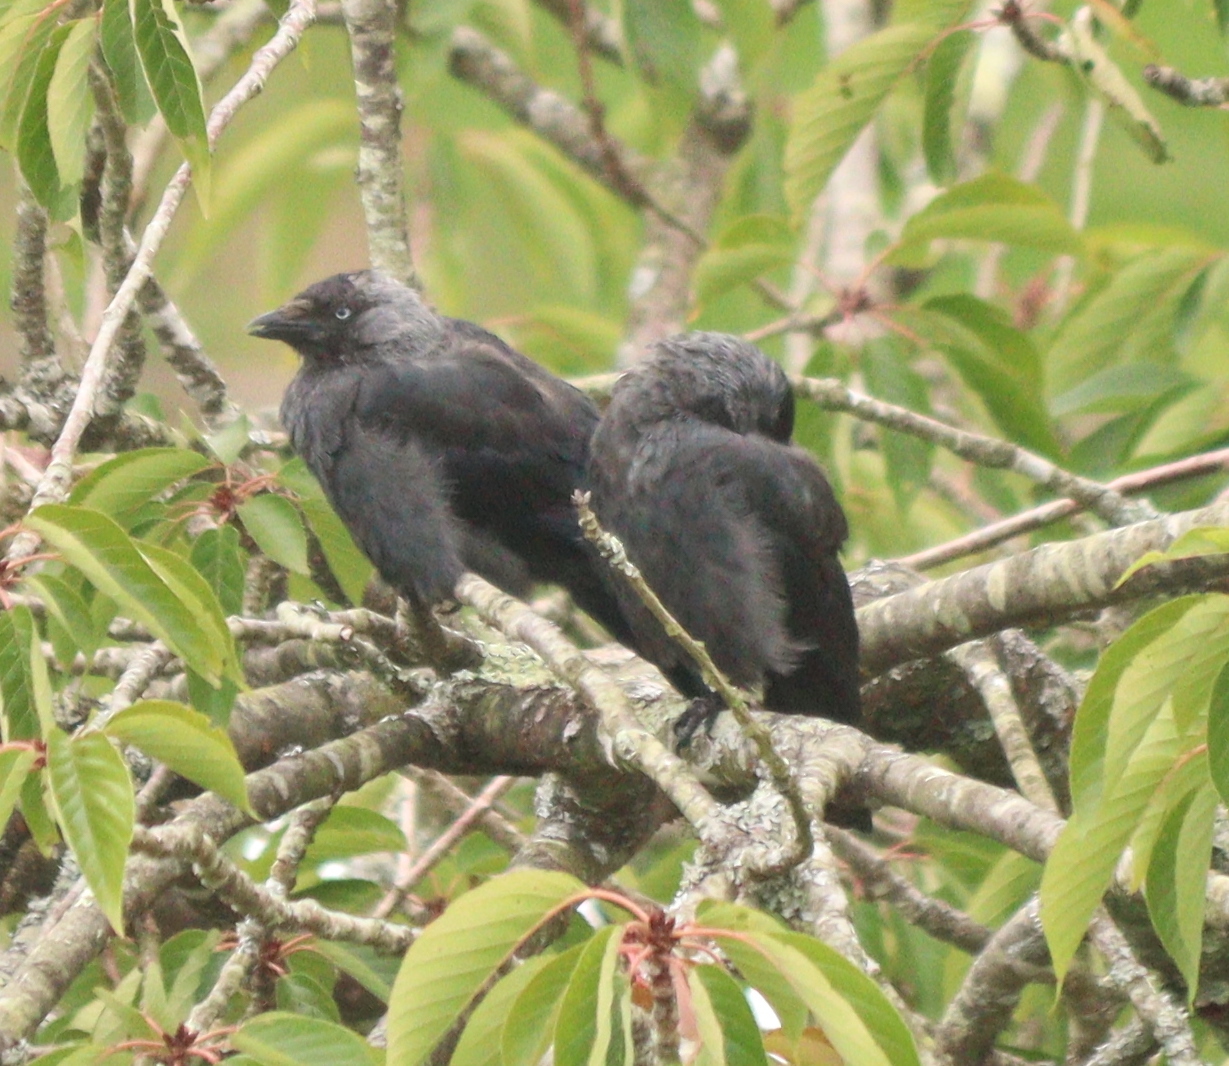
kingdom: Animalia
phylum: Chordata
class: Aves
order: Passeriformes
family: Corvidae
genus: Coloeus
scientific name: Coloeus monedula
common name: Western jackdaw
